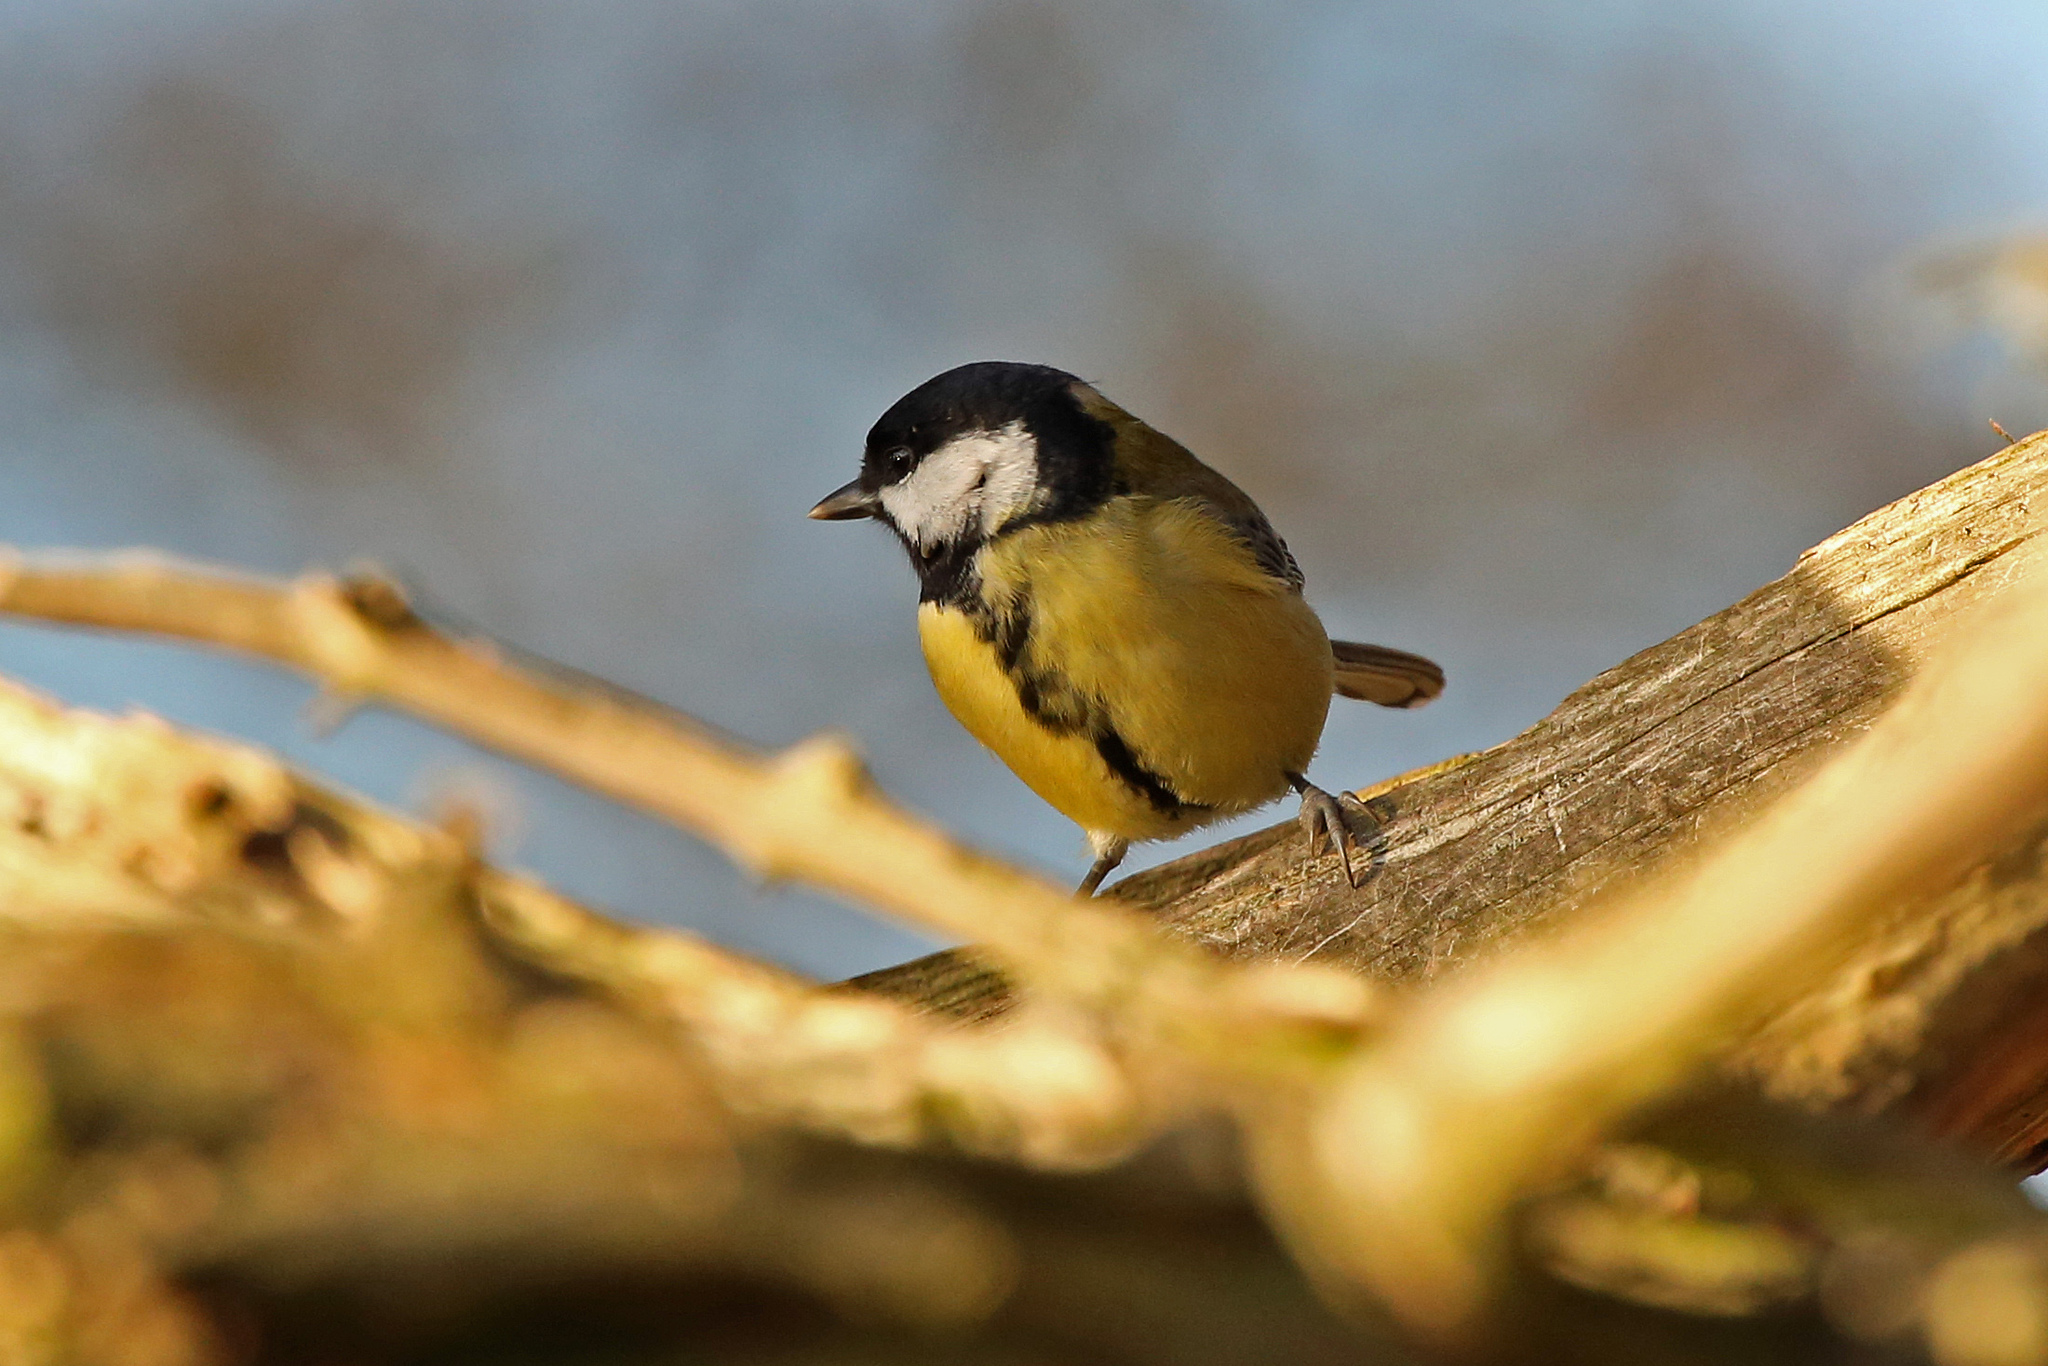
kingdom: Animalia
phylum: Chordata
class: Aves
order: Passeriformes
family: Paridae
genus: Parus
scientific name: Parus major
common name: Great tit
